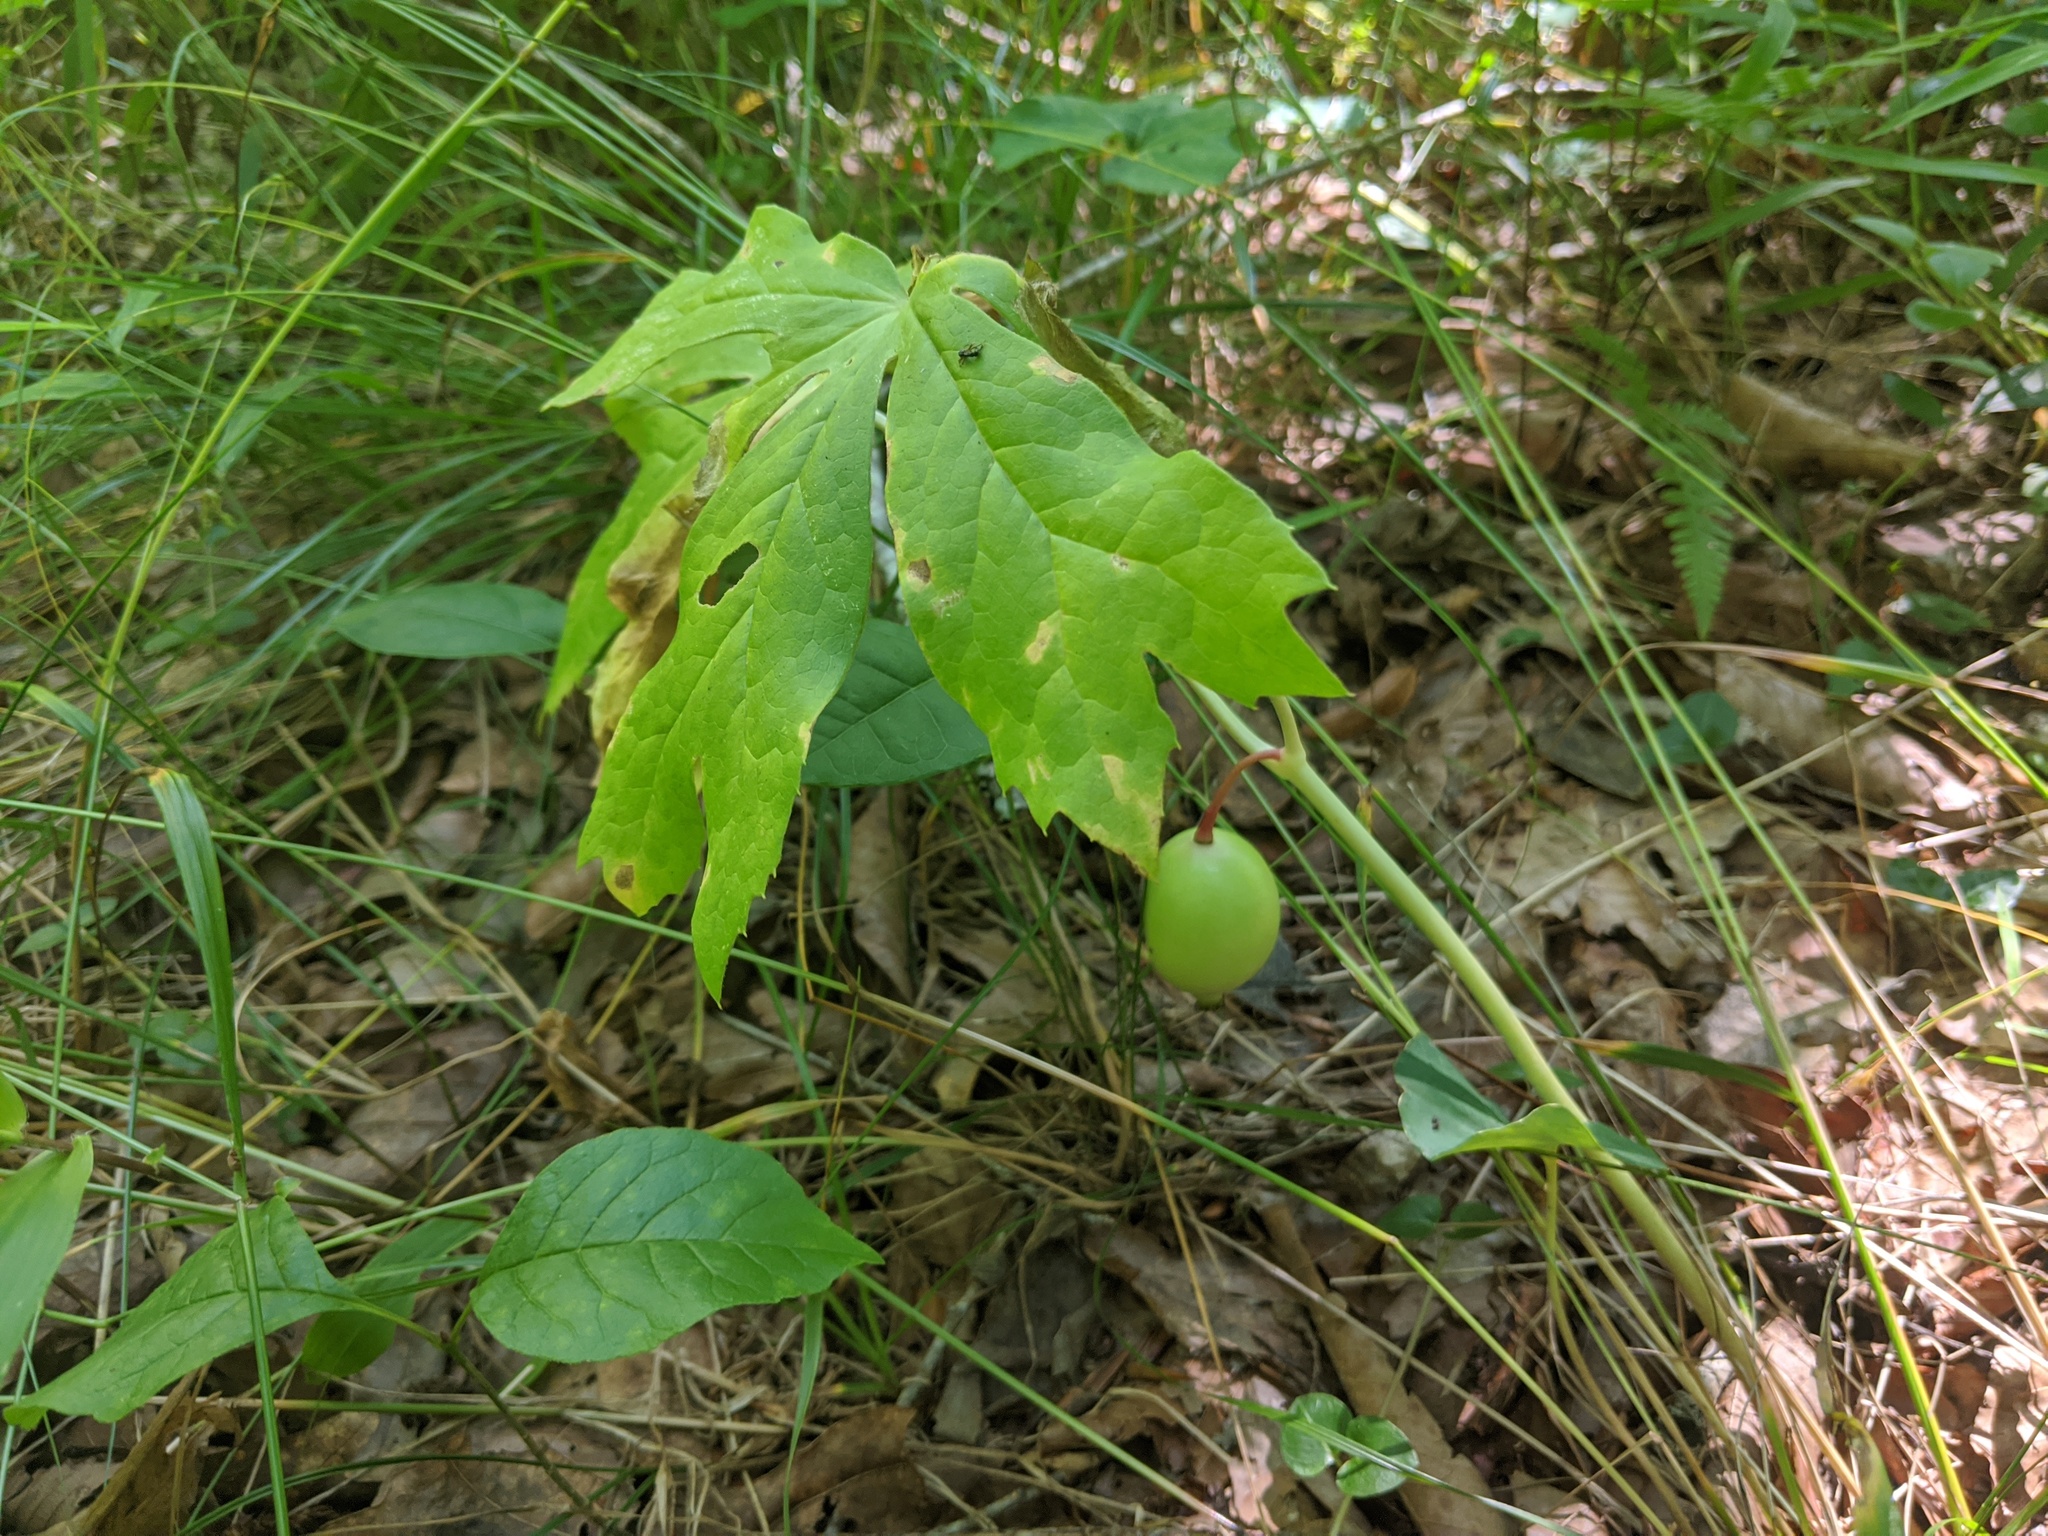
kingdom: Plantae
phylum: Tracheophyta
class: Magnoliopsida
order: Ranunculales
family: Berberidaceae
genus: Podophyllum
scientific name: Podophyllum peltatum
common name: Wild mandrake
